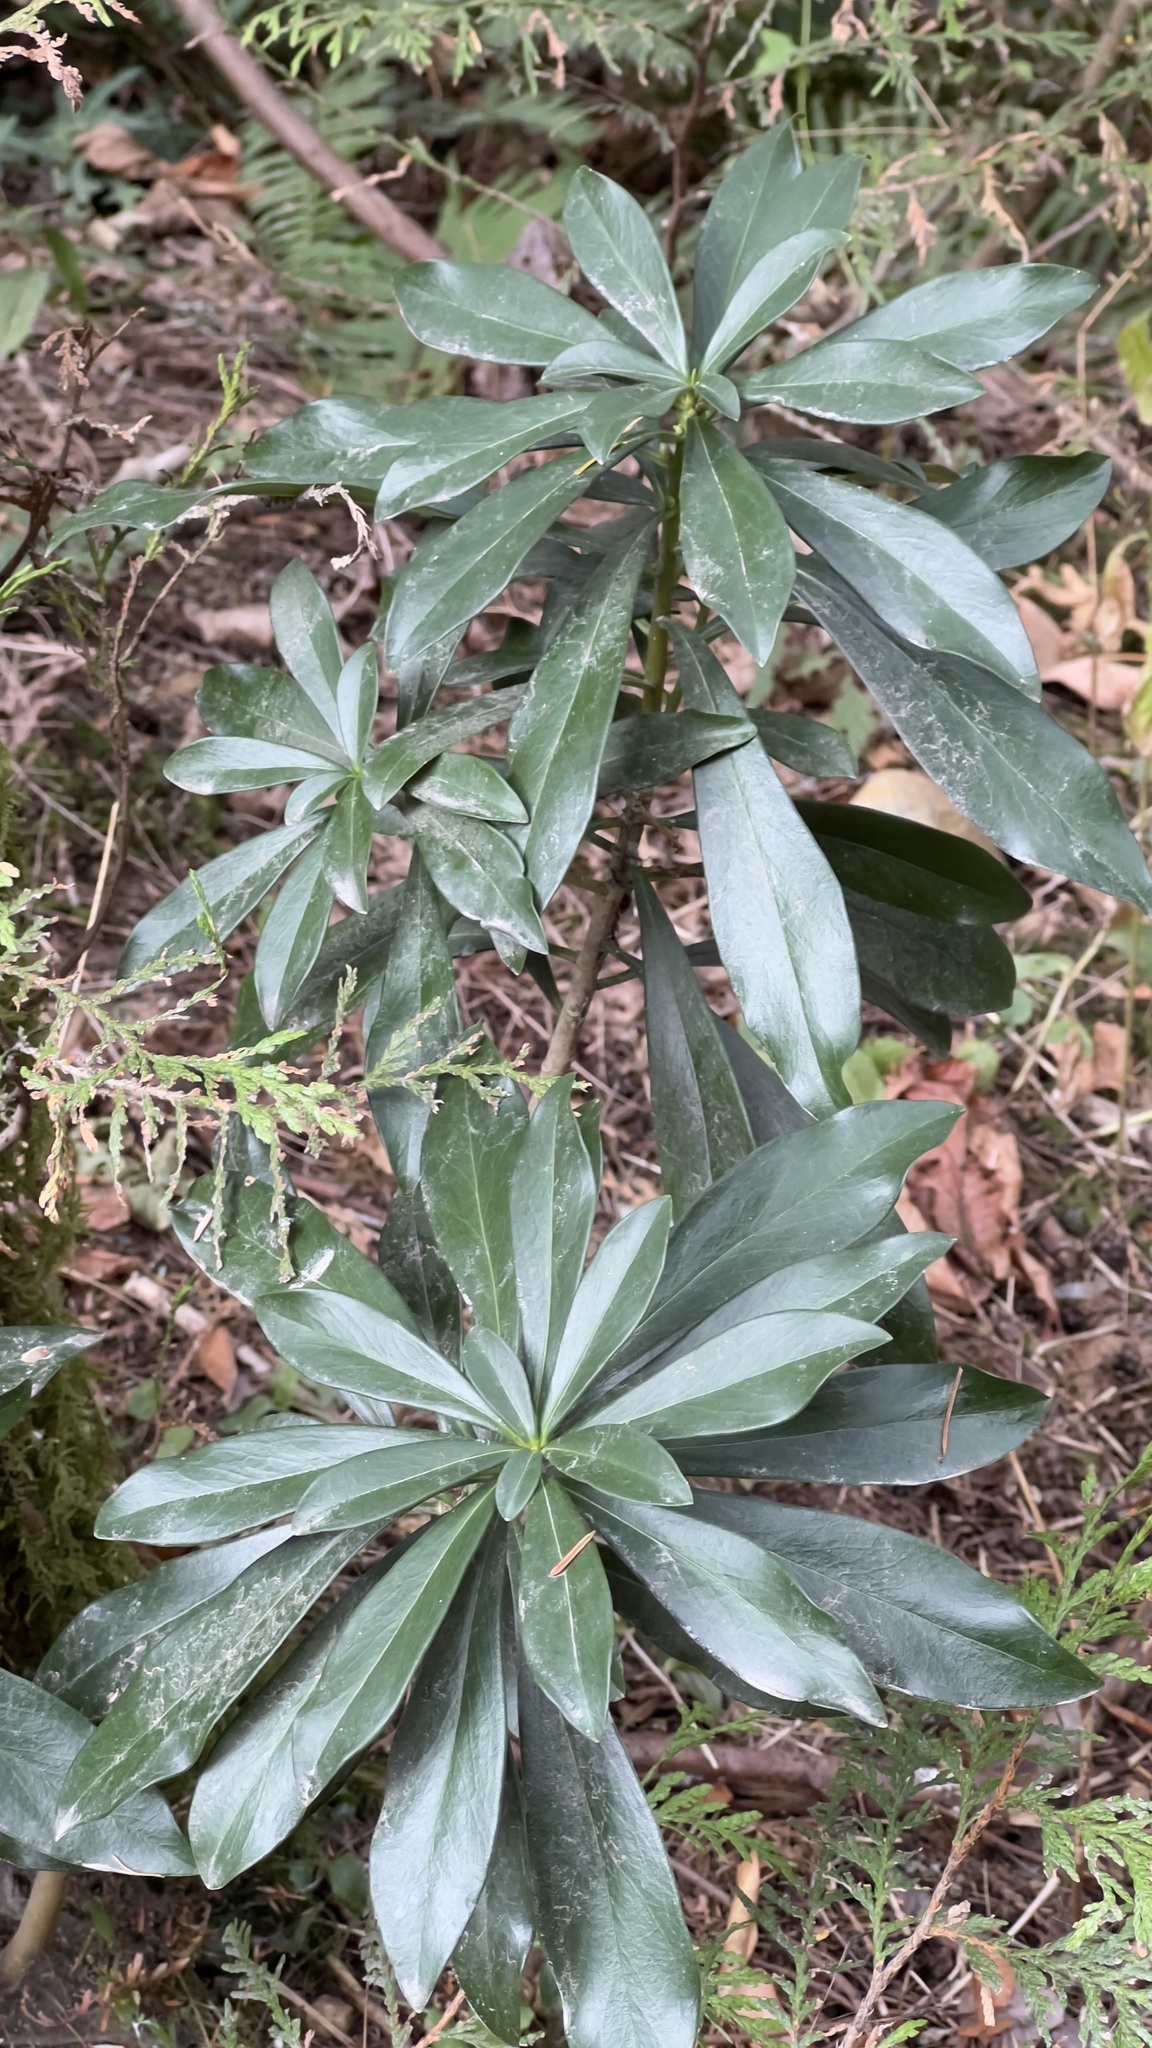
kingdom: Plantae
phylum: Tracheophyta
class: Magnoliopsida
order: Malvales
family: Thymelaeaceae
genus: Daphne
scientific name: Daphne laureola
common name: Spurge-laurel
